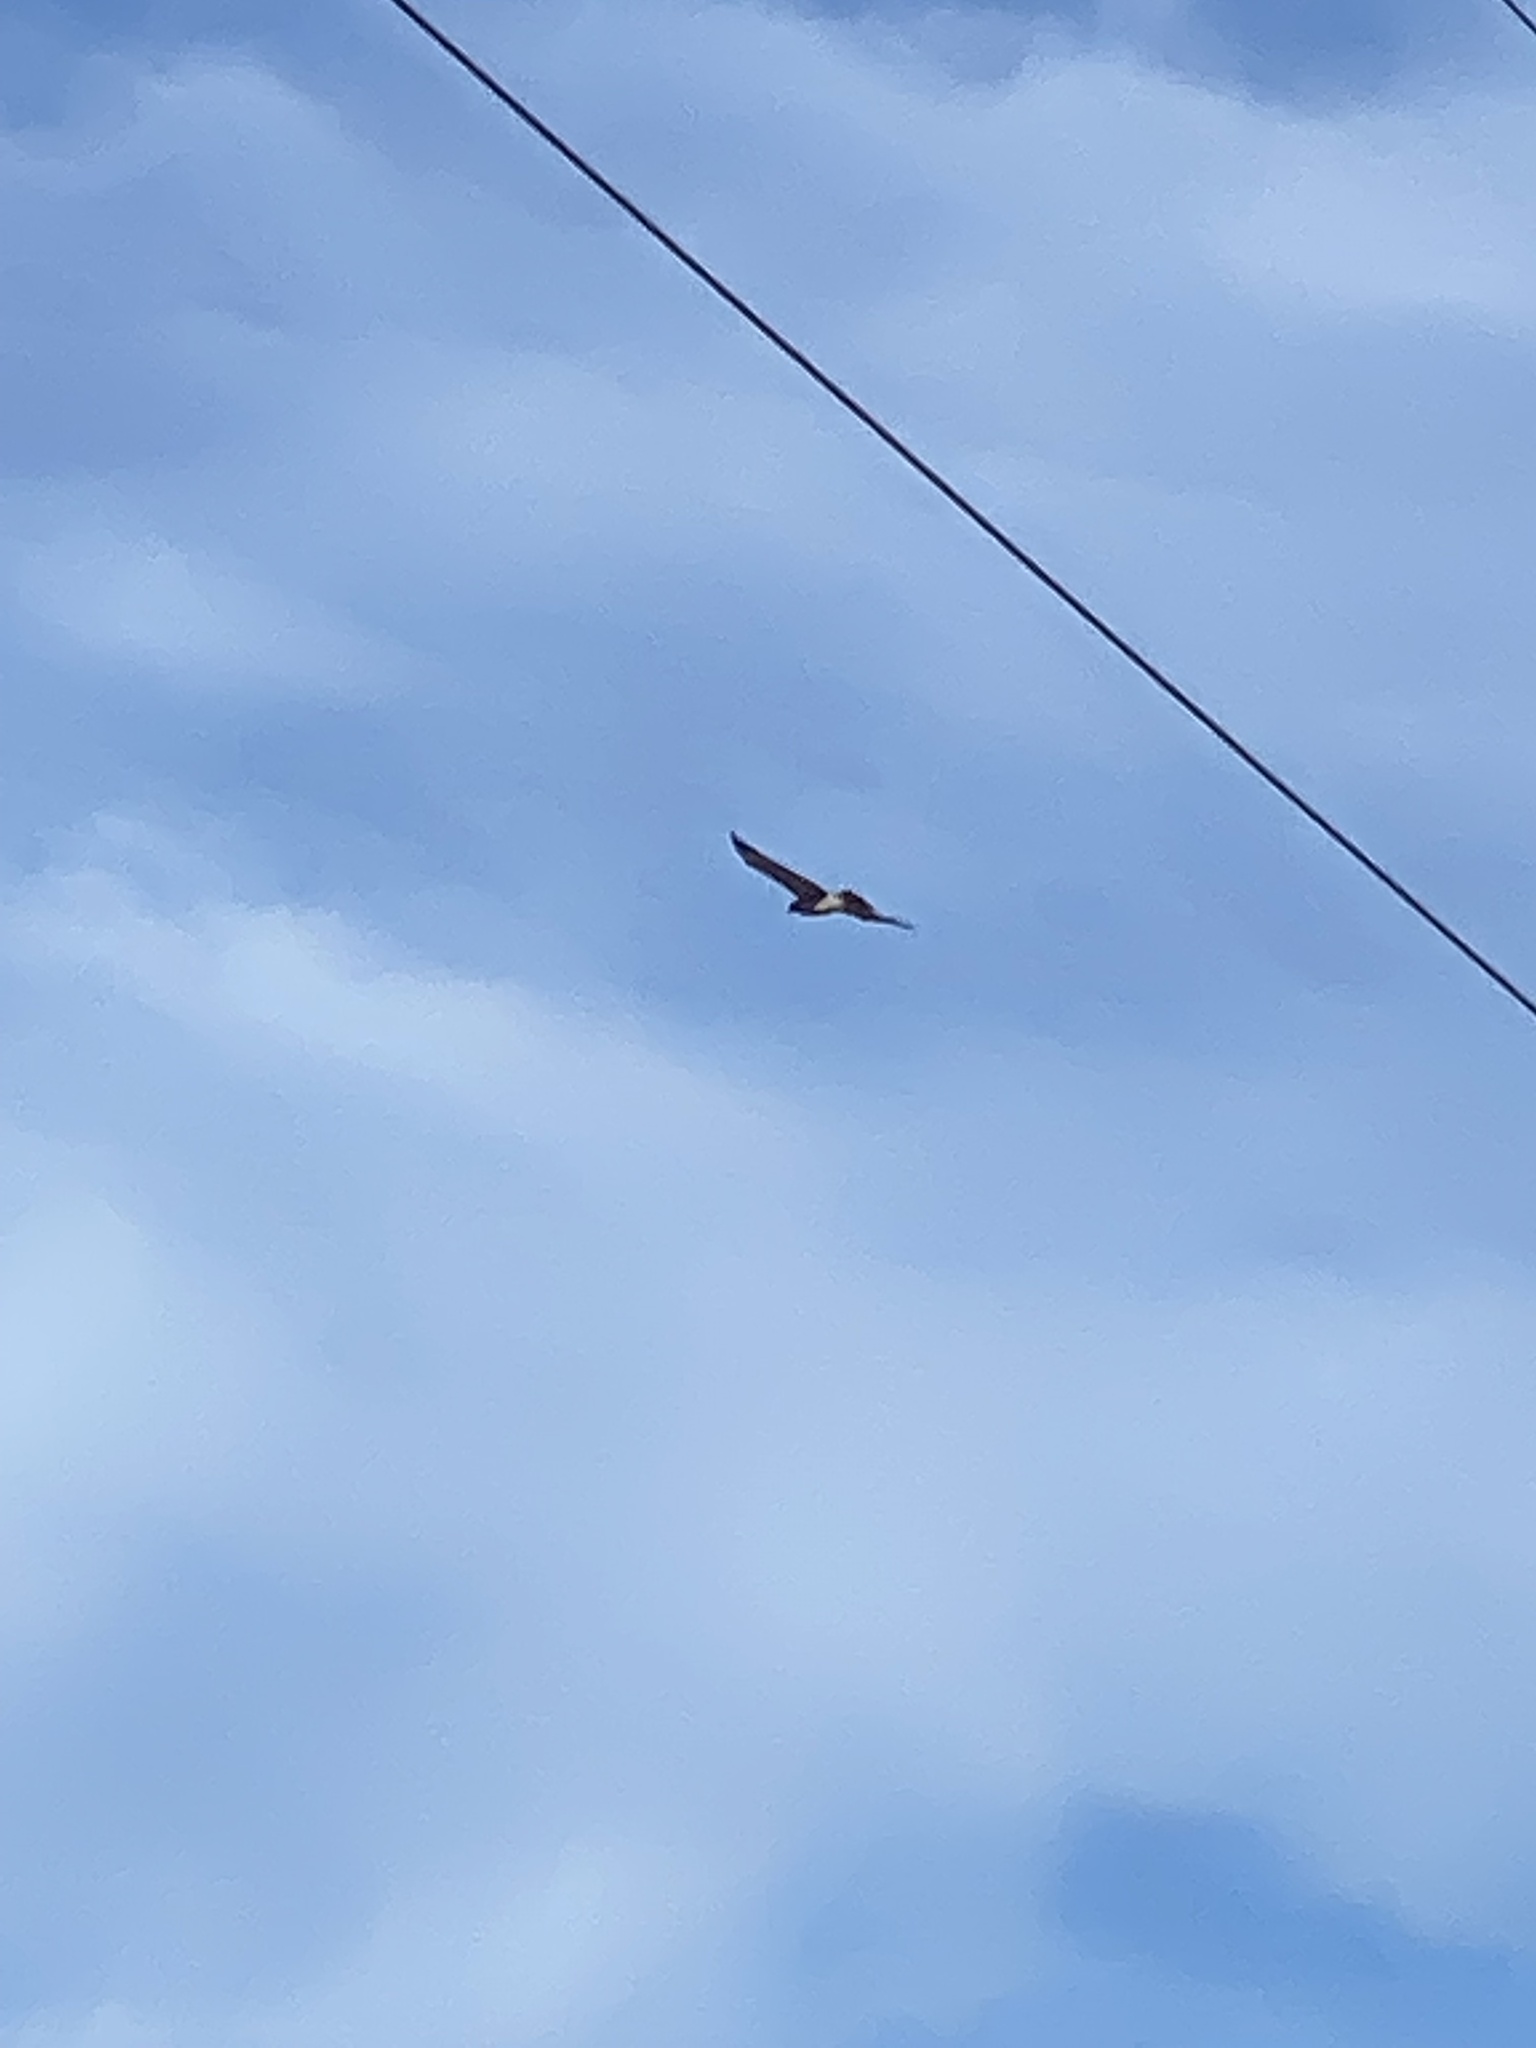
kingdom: Animalia
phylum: Chordata
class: Aves
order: Accipitriformes
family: Accipitridae
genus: Buteo
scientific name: Buteo jamaicensis
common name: Red-tailed hawk
